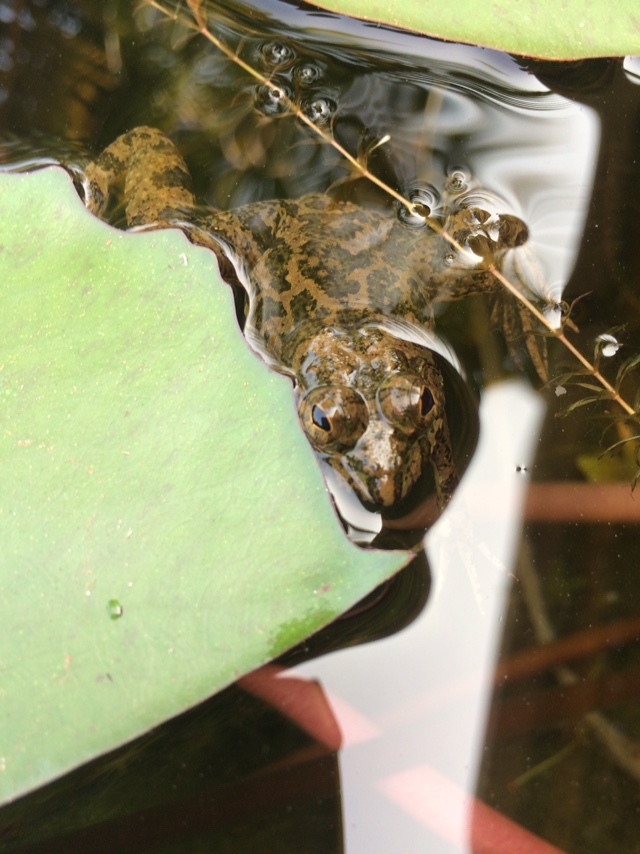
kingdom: Animalia
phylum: Chordata
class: Amphibia
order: Anura
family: Dicroglossidae
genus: Euphlyctis
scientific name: Euphlyctis cyanophlyctis
